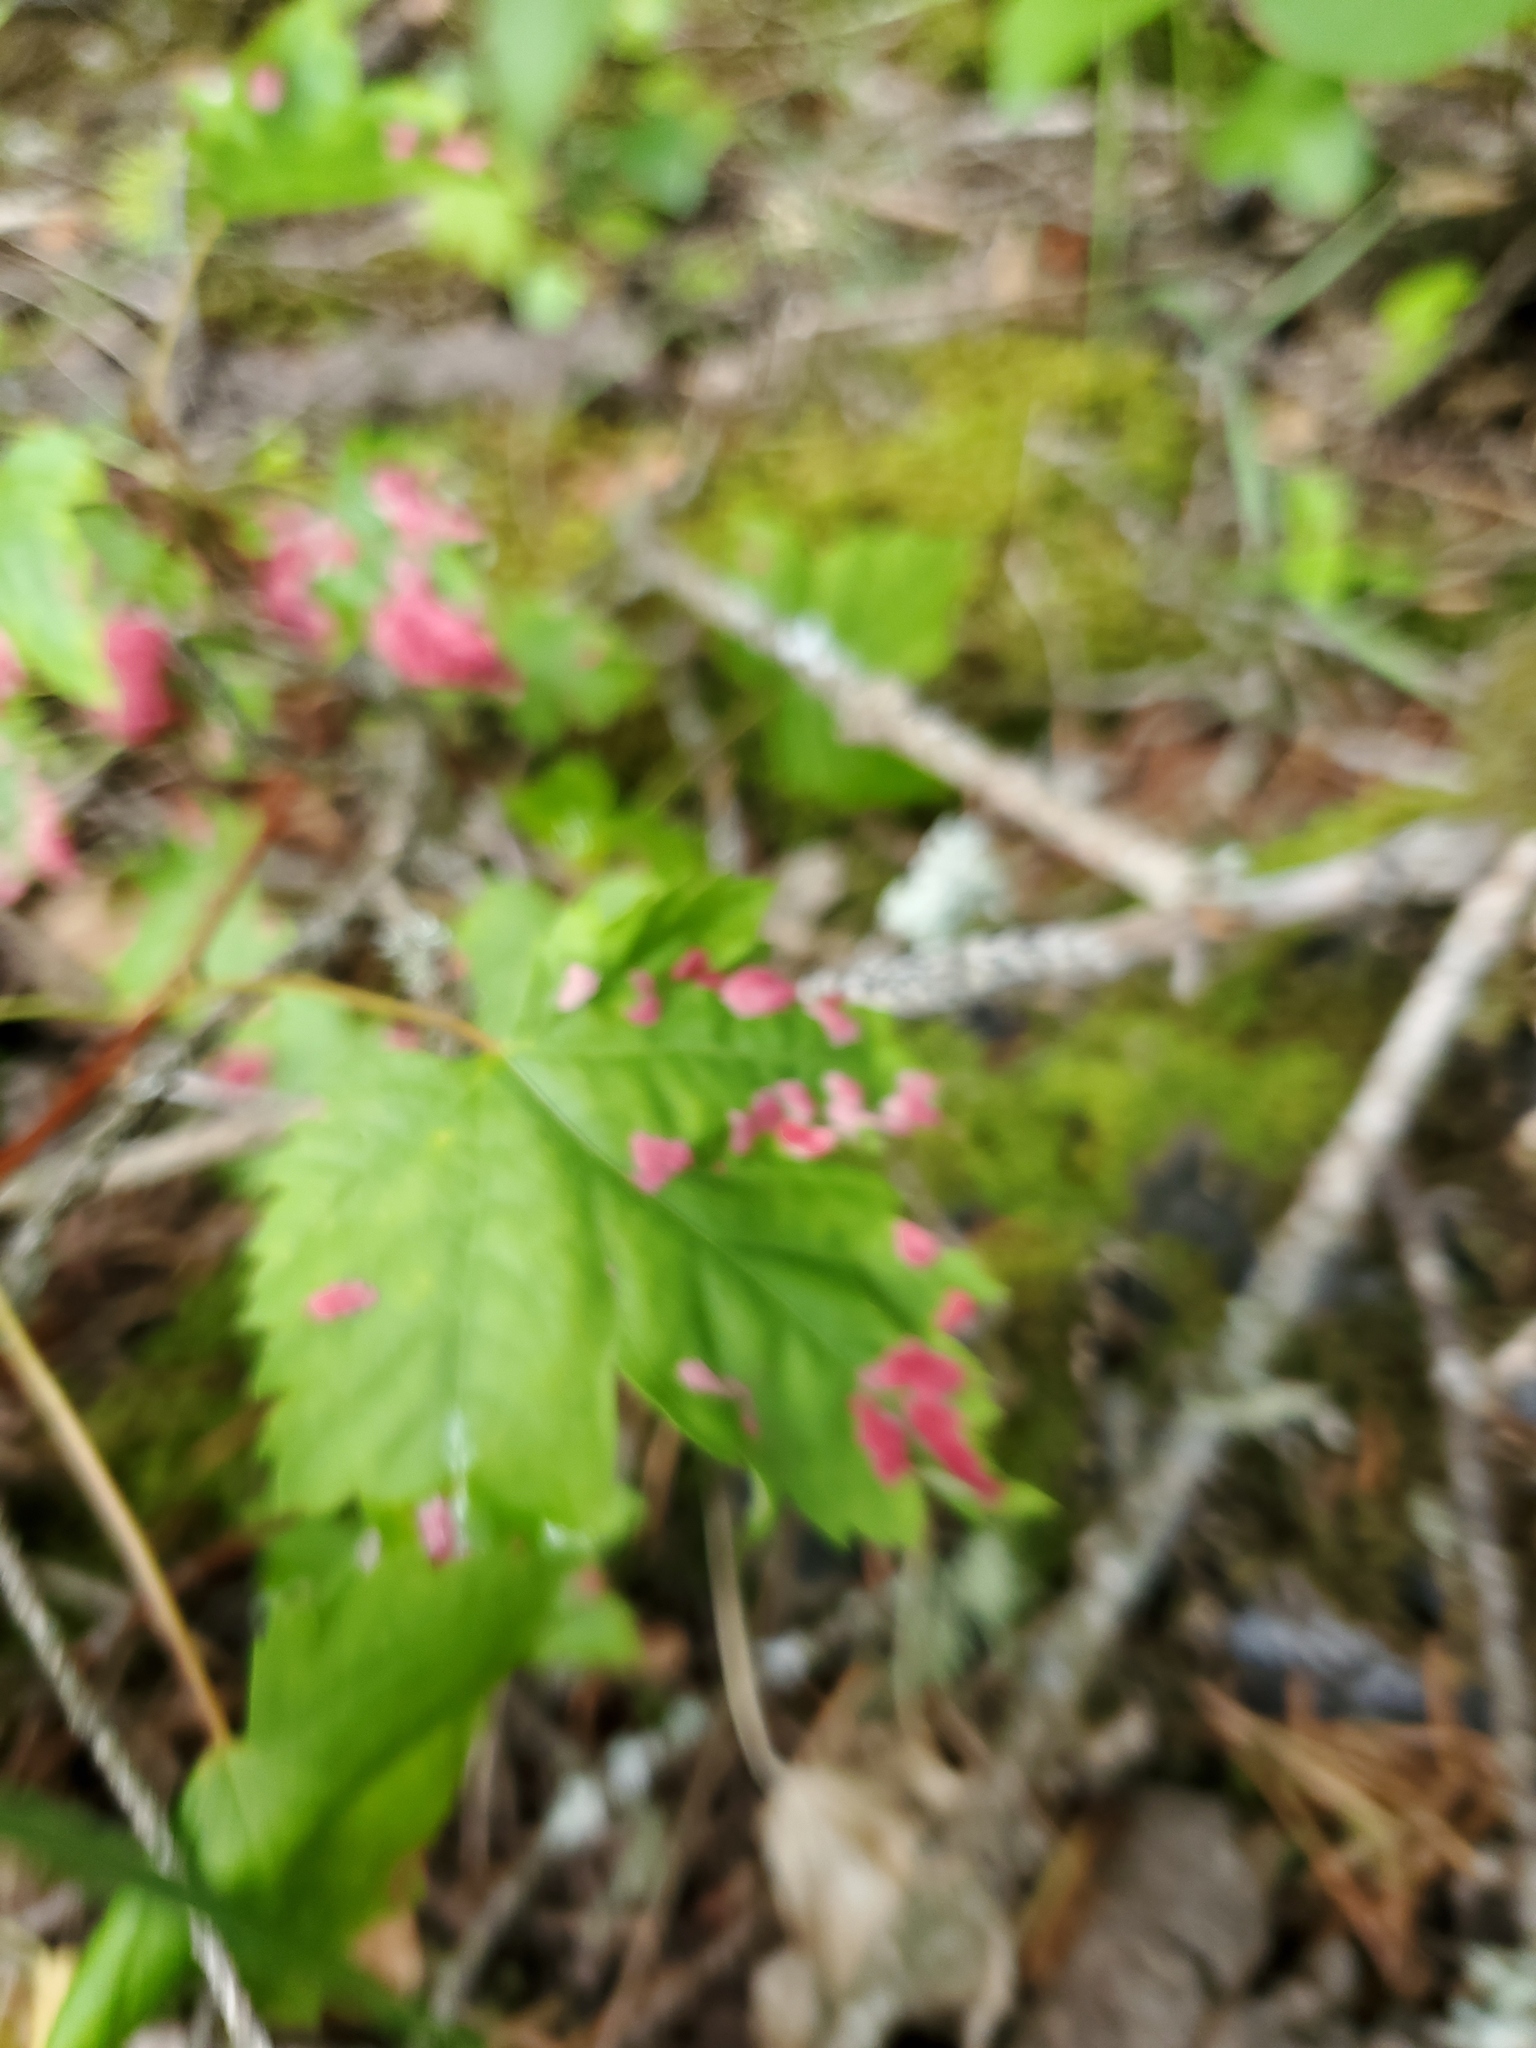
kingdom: Animalia
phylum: Arthropoda
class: Arachnida
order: Trombidiformes
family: Eriophyidae
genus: Aceria
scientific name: Aceria
